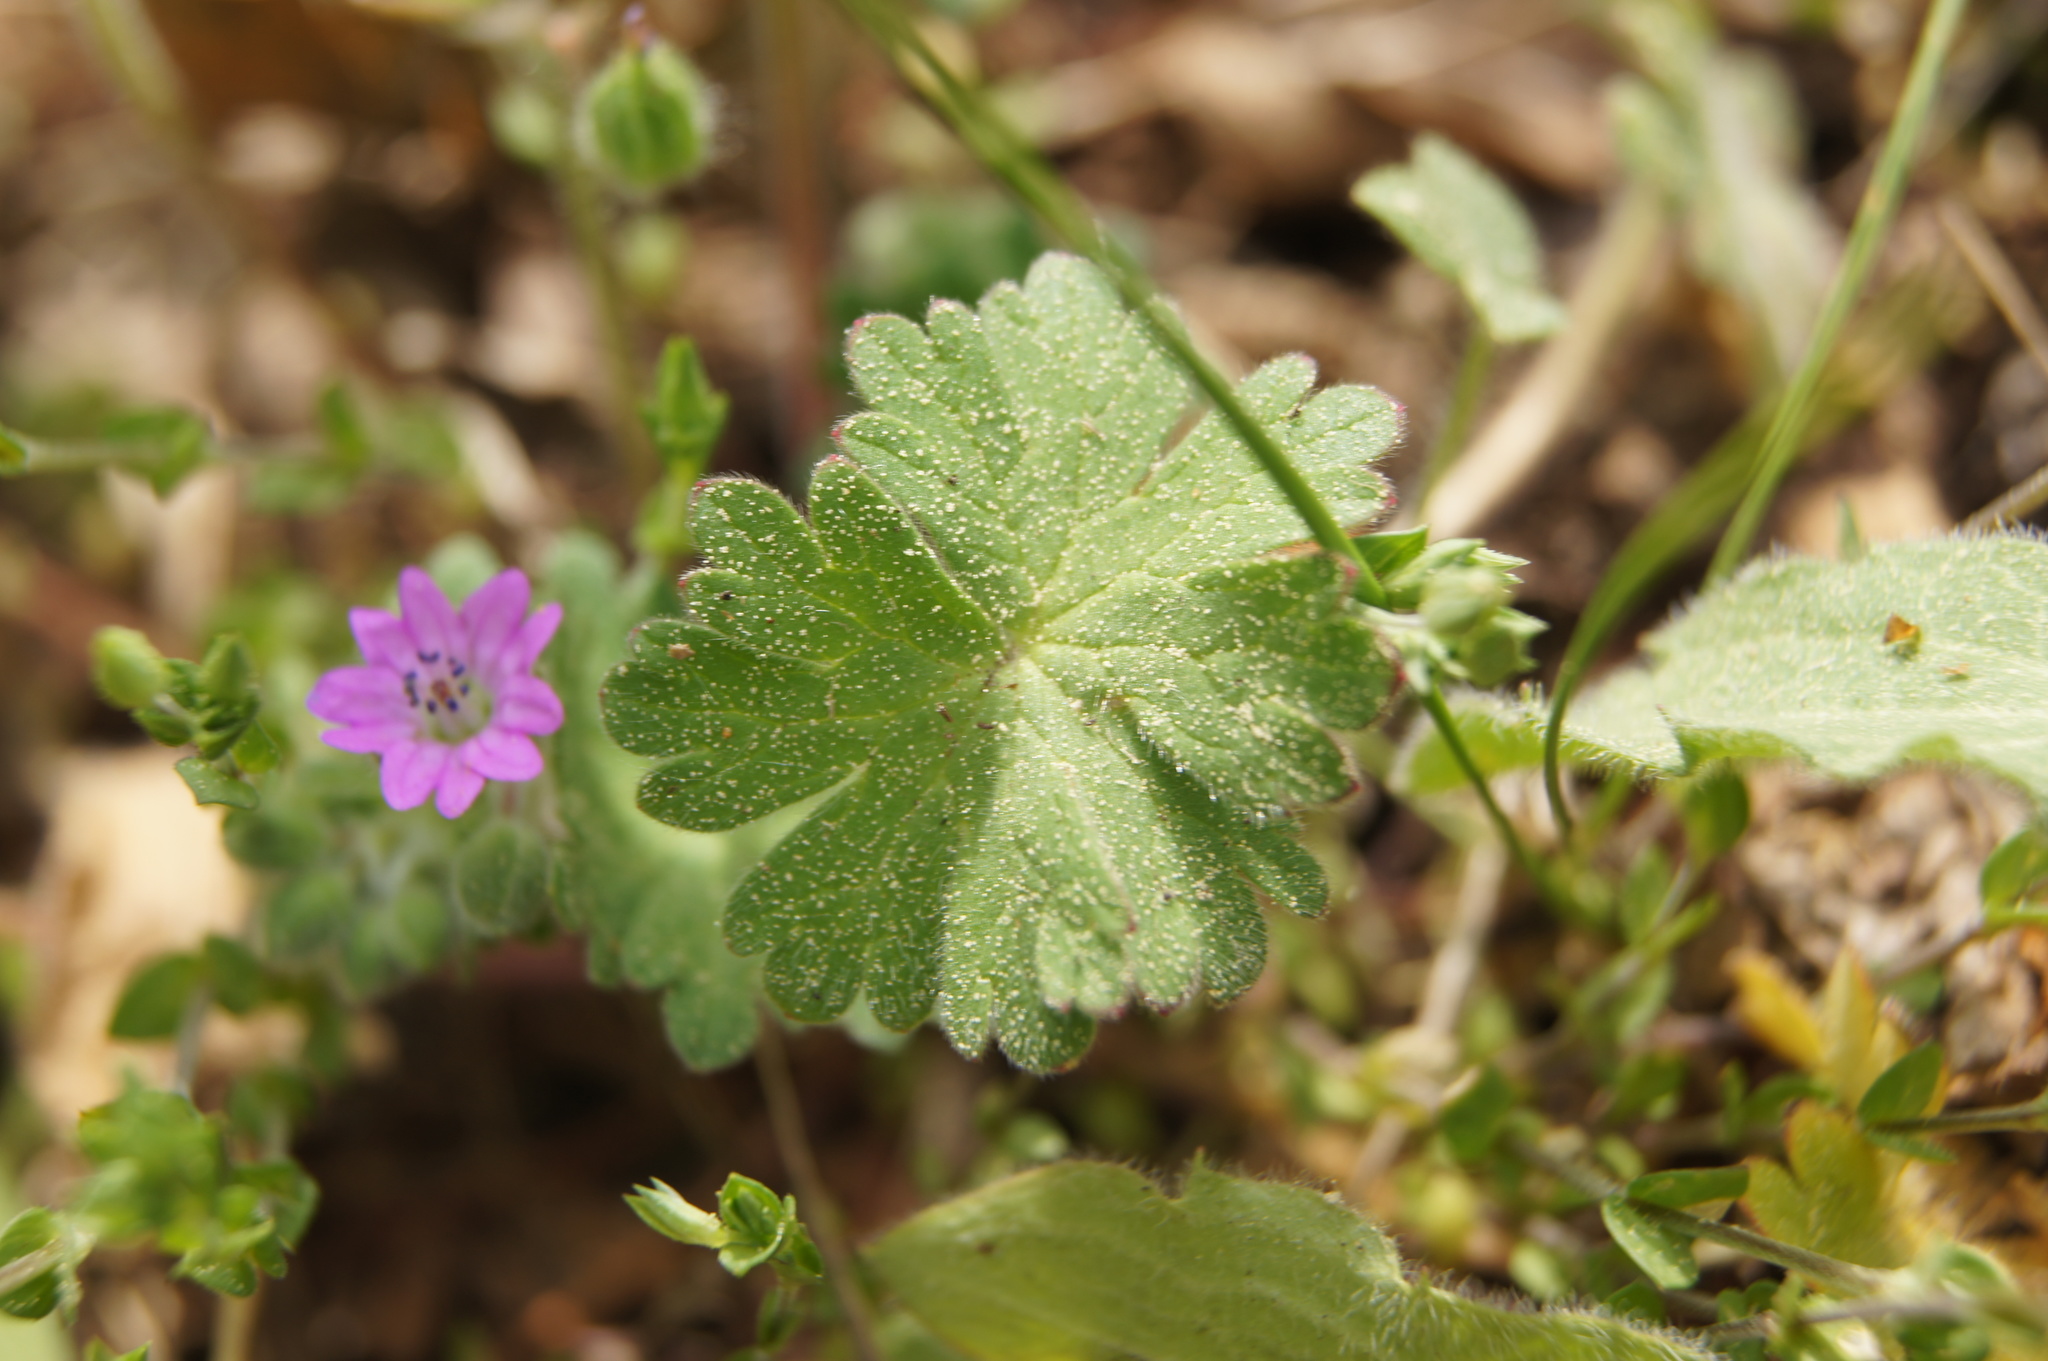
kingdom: Plantae
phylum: Tracheophyta
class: Magnoliopsida
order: Geraniales
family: Geraniaceae
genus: Geranium
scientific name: Geranium molle
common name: Dove's-foot crane's-bill
